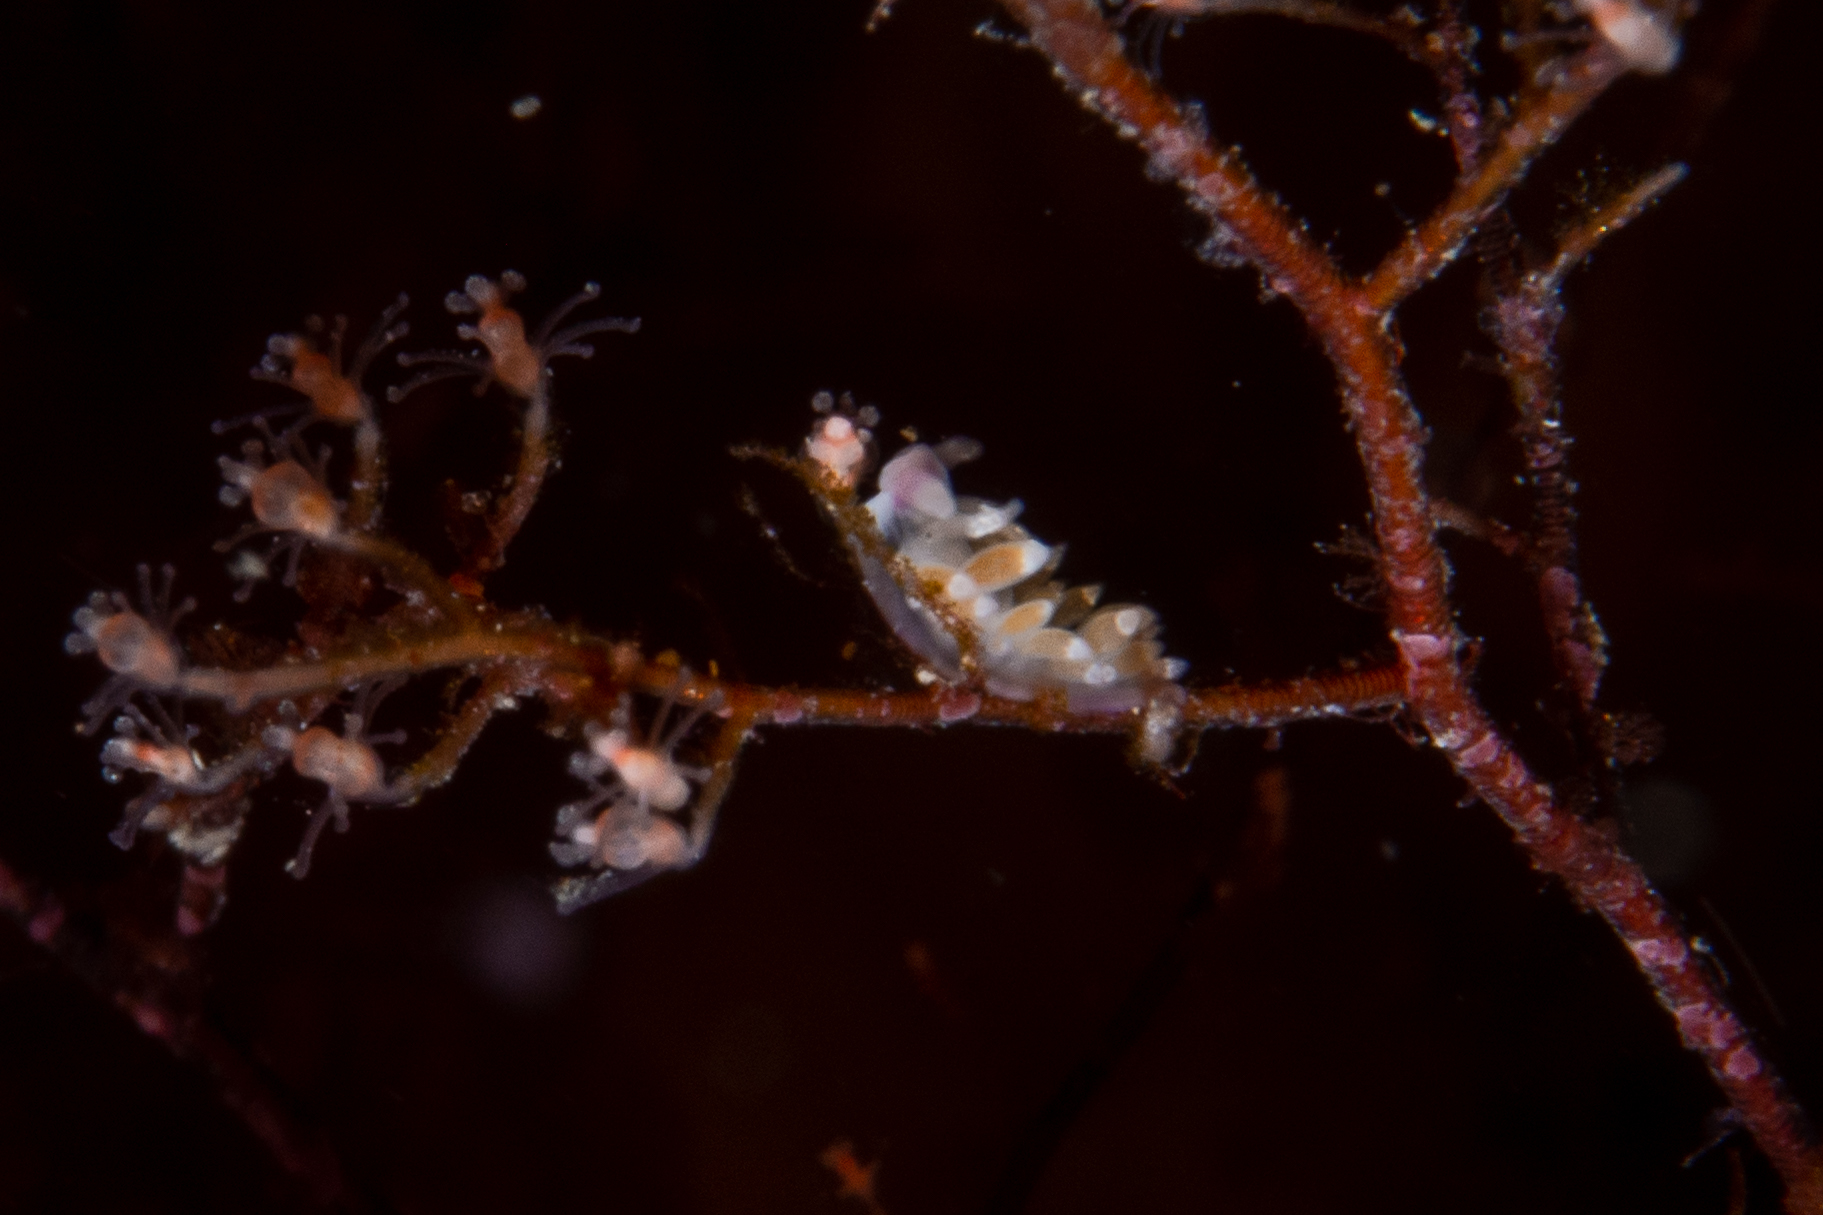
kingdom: Animalia
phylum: Mollusca
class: Gastropoda
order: Nudibranchia
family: Flabellinidae
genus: Coryphellina
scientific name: Coryphellina poenicia
